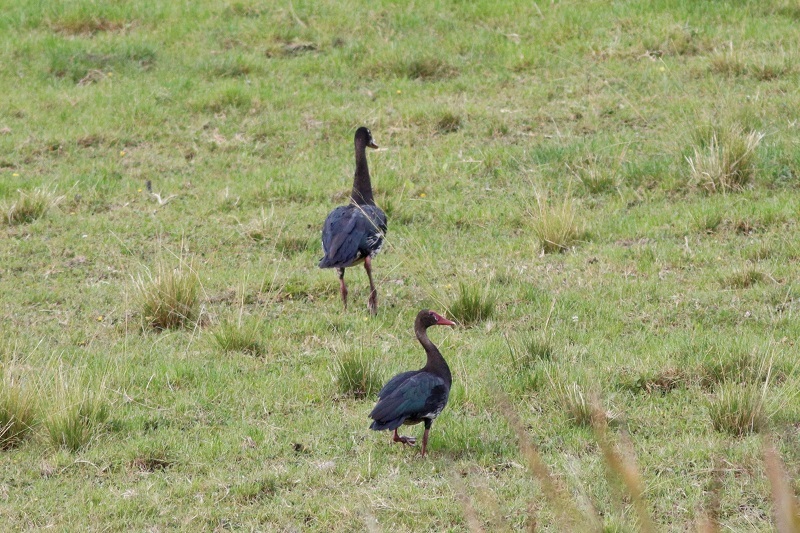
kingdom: Animalia
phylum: Chordata
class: Aves
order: Anseriformes
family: Anatidae
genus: Plectropterus
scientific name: Plectropterus gambensis
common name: Spur-winged goose
